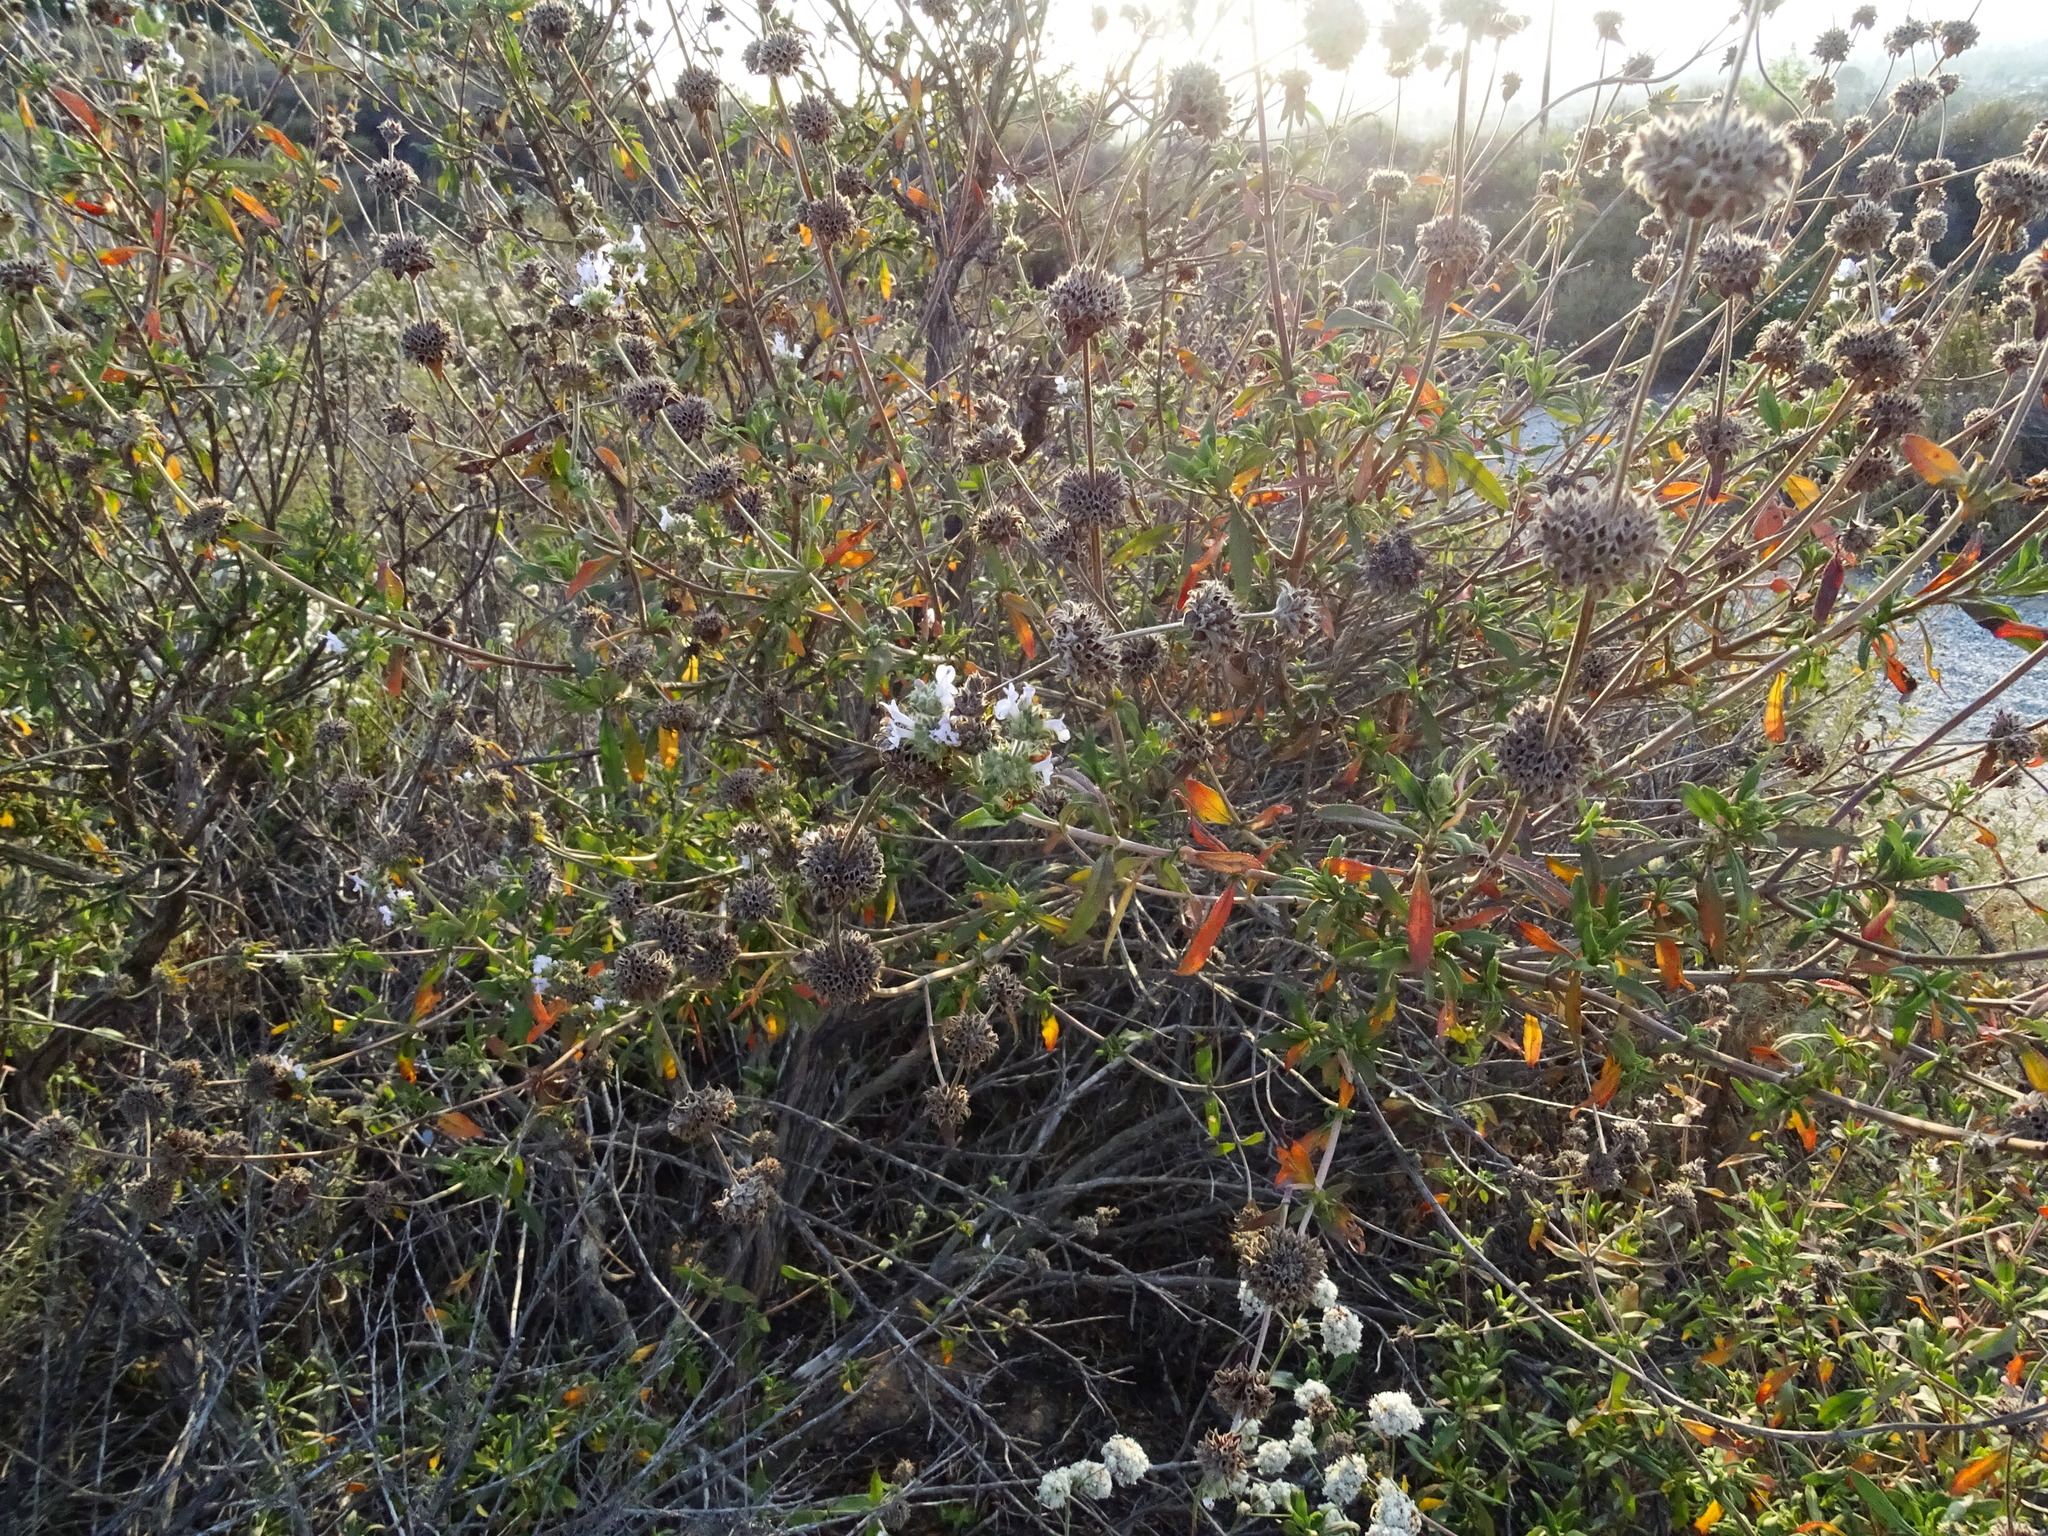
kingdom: Plantae
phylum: Tracheophyta
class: Magnoliopsida
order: Lamiales
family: Lamiaceae
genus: Salvia
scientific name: Salvia mellifera
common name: Black sage
